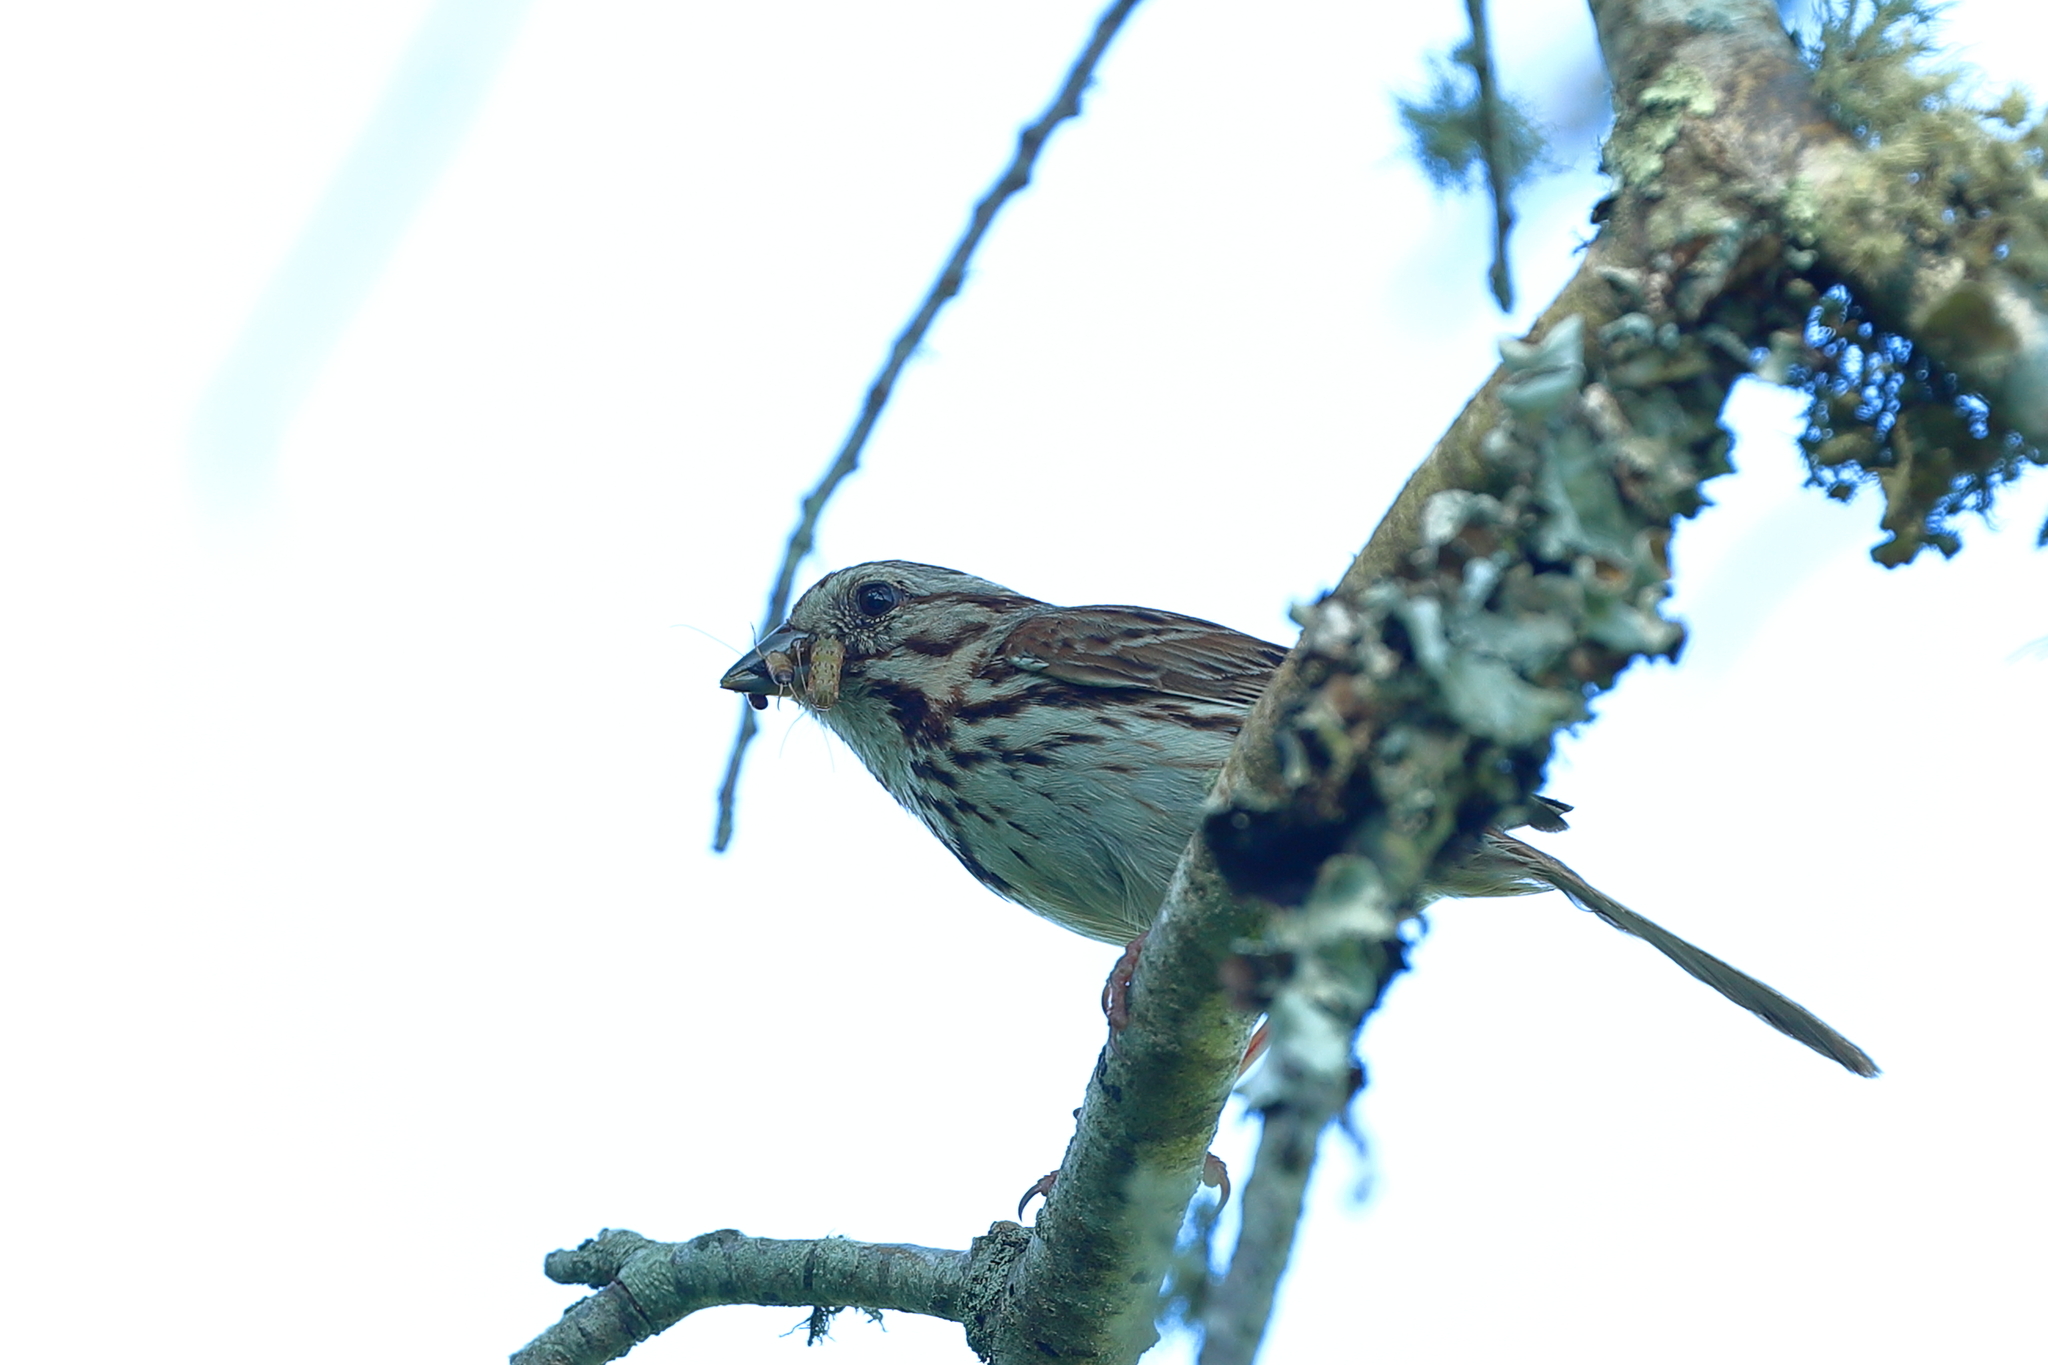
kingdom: Animalia
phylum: Chordata
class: Aves
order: Passeriformes
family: Passerellidae
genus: Melospiza
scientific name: Melospiza melodia
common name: Song sparrow
